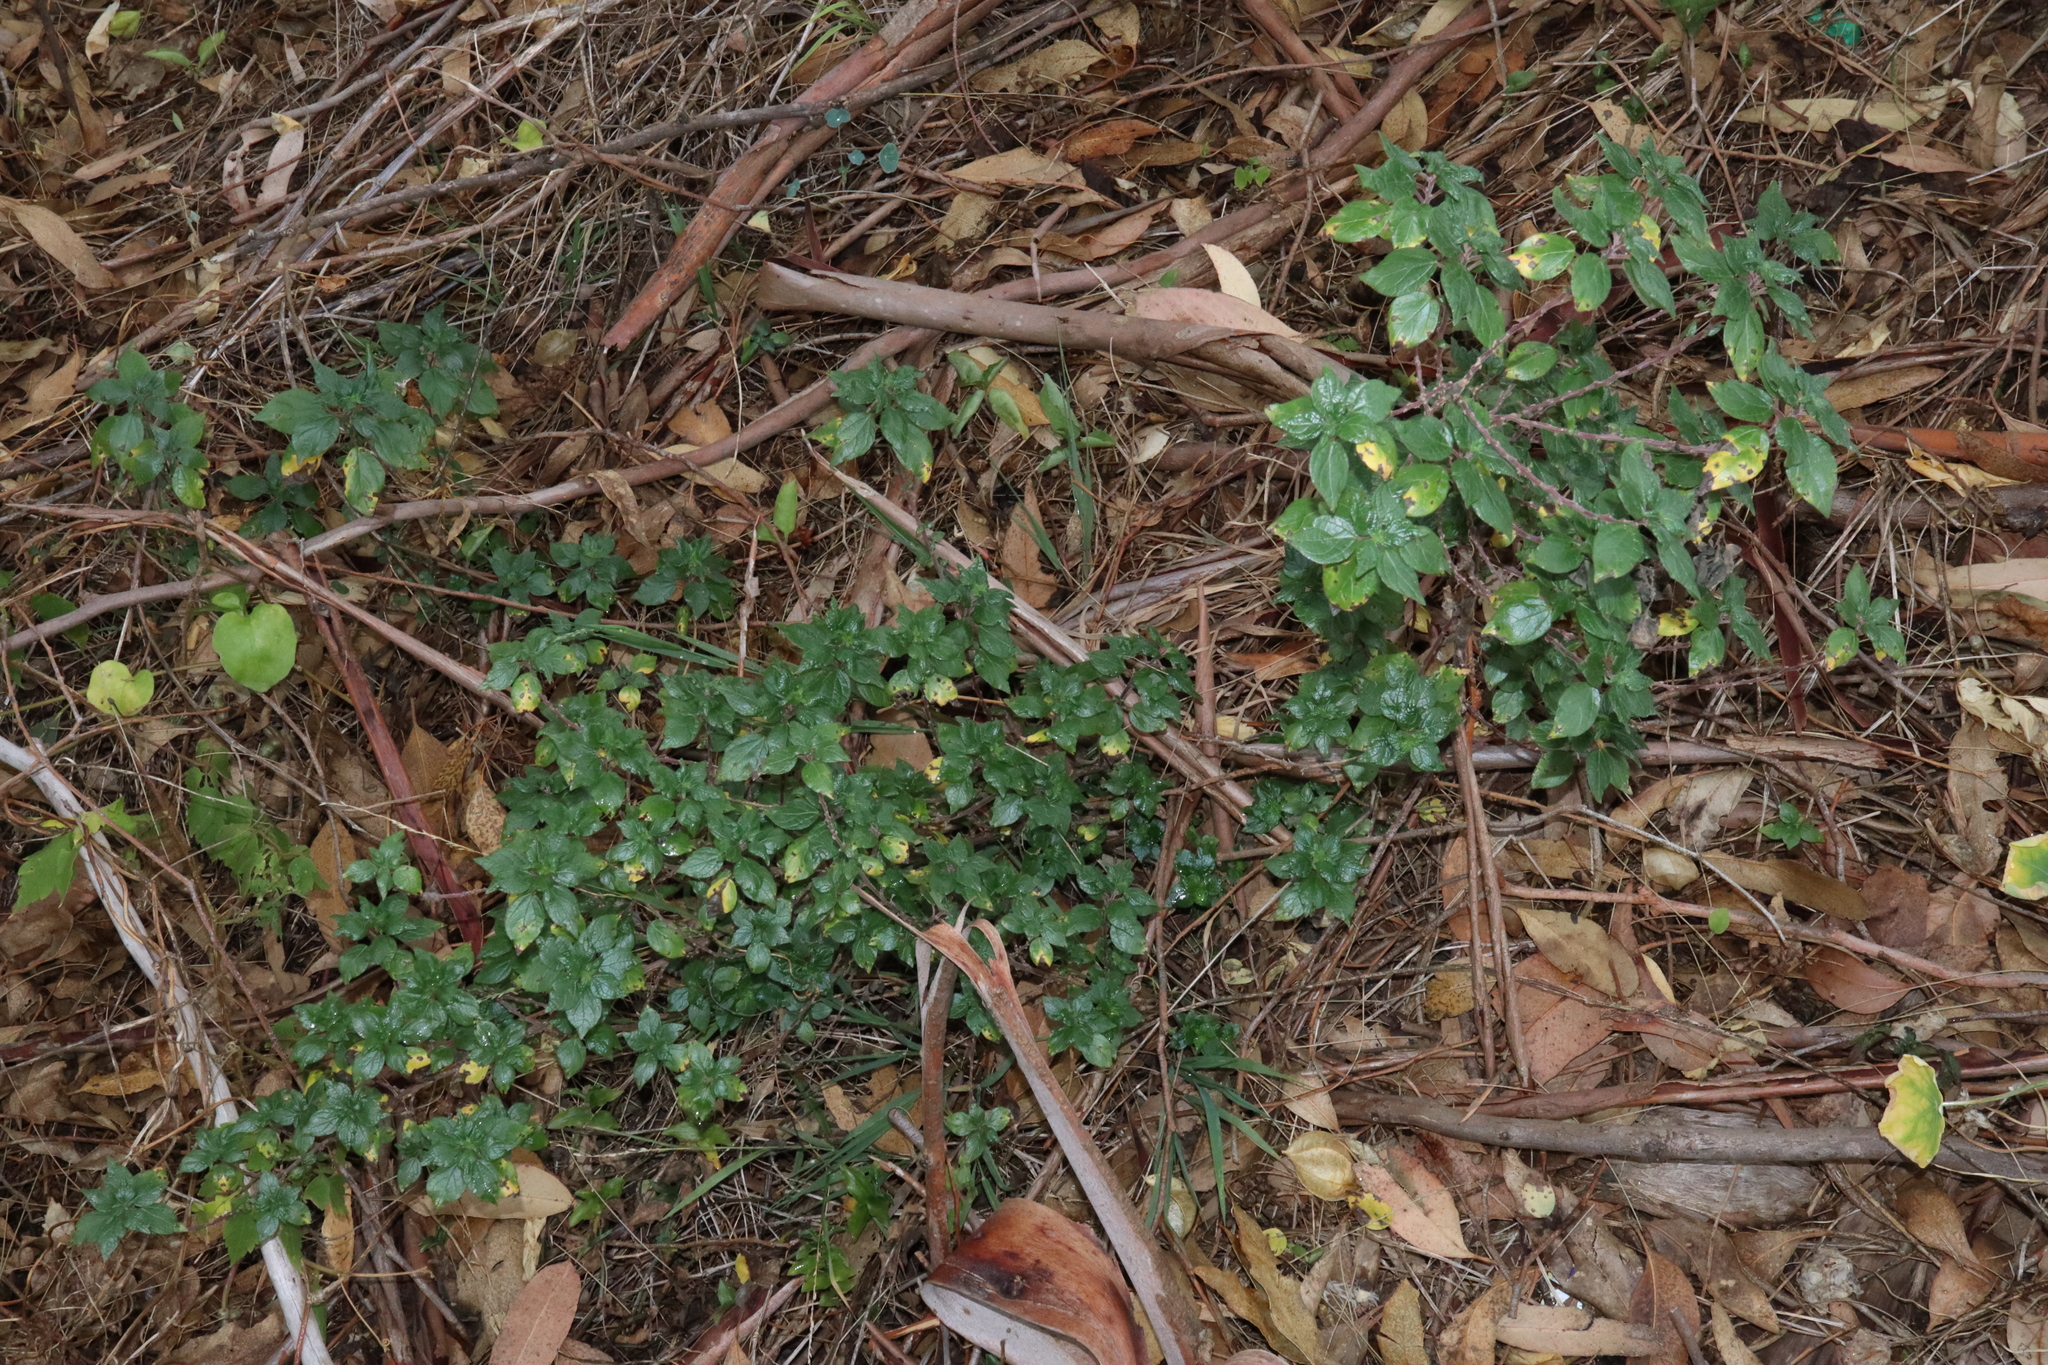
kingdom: Plantae
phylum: Tracheophyta
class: Magnoliopsida
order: Rosales
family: Urticaceae
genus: Parietaria
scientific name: Parietaria judaica
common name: Pellitory-of-the-wall
